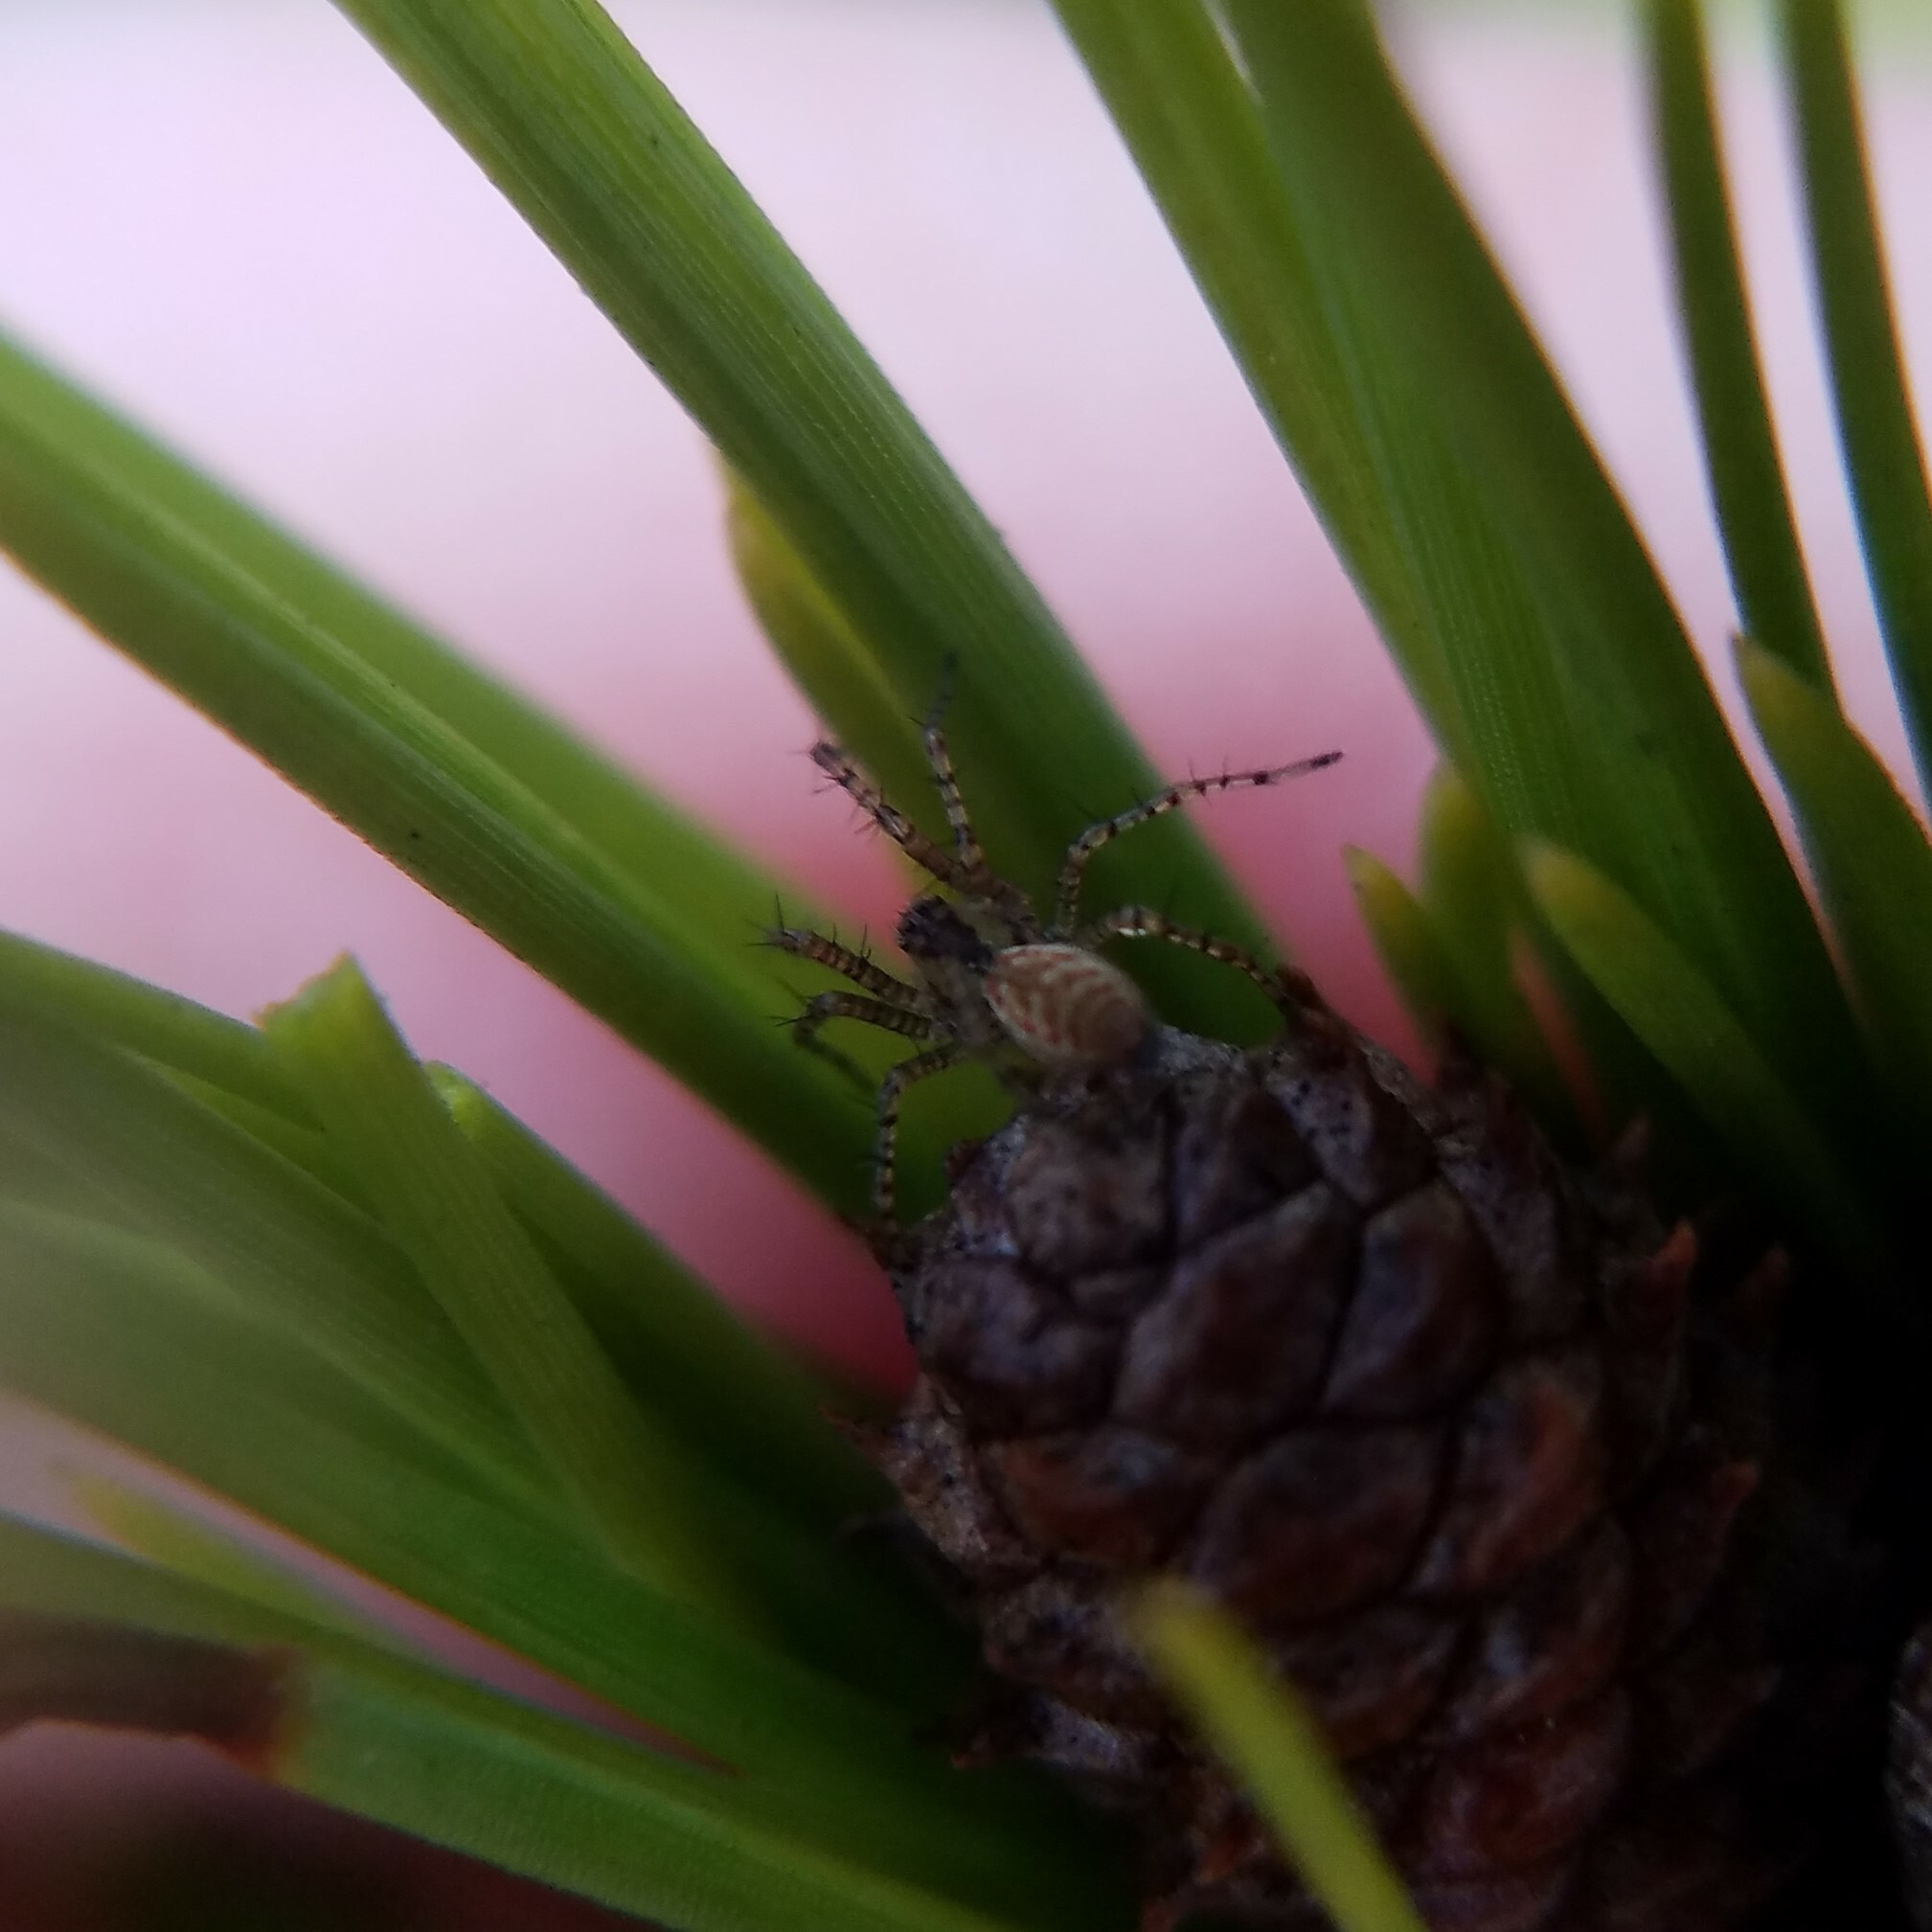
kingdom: Animalia
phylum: Arthropoda
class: Arachnida
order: Araneae
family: Oxyopidae
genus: Peucetia
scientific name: Peucetia viridans
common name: Lynx spiders
